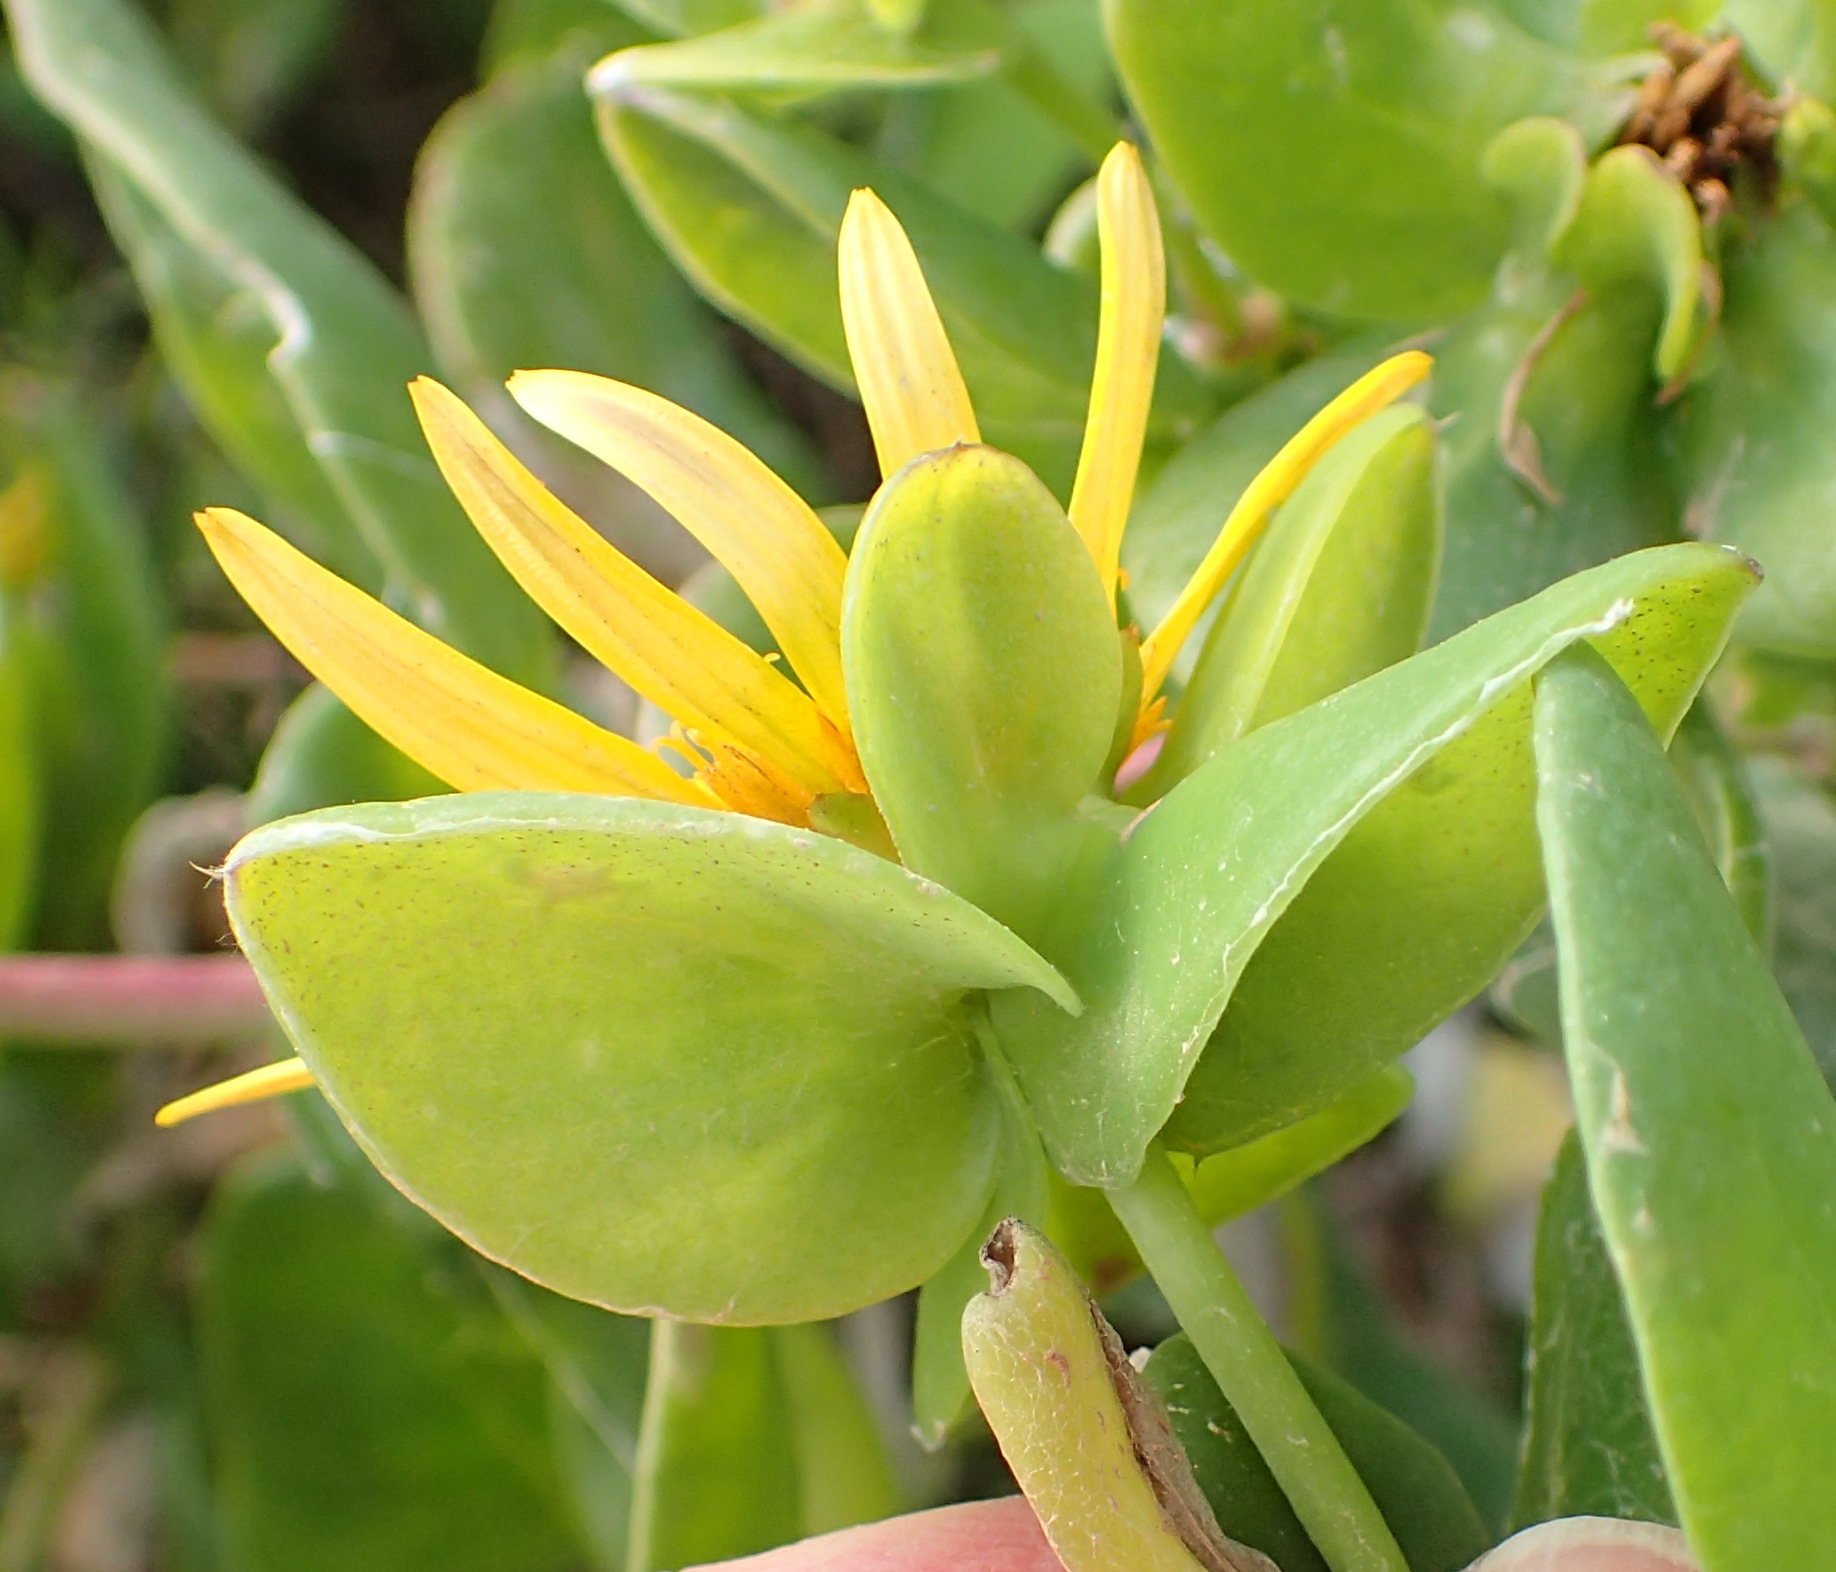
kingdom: Plantae
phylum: Tracheophyta
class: Magnoliopsida
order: Asterales
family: Asteraceae
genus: Didelta
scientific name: Didelta spinosa
